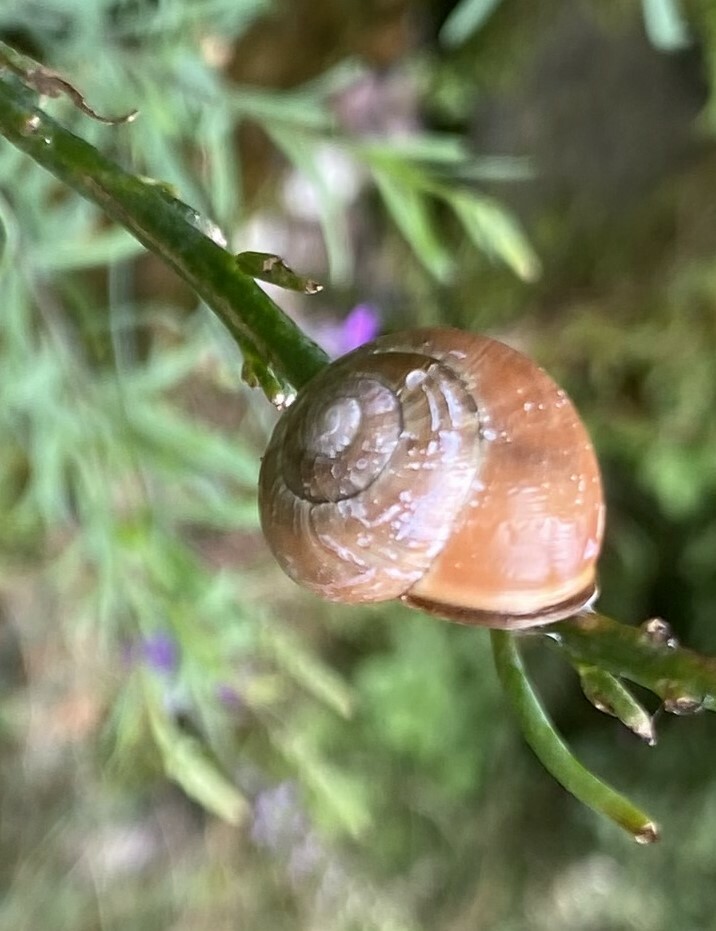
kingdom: Animalia
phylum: Mollusca
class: Gastropoda
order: Stylommatophora
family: Helicidae
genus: Cepaea
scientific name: Cepaea nemoralis
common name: Grovesnail
